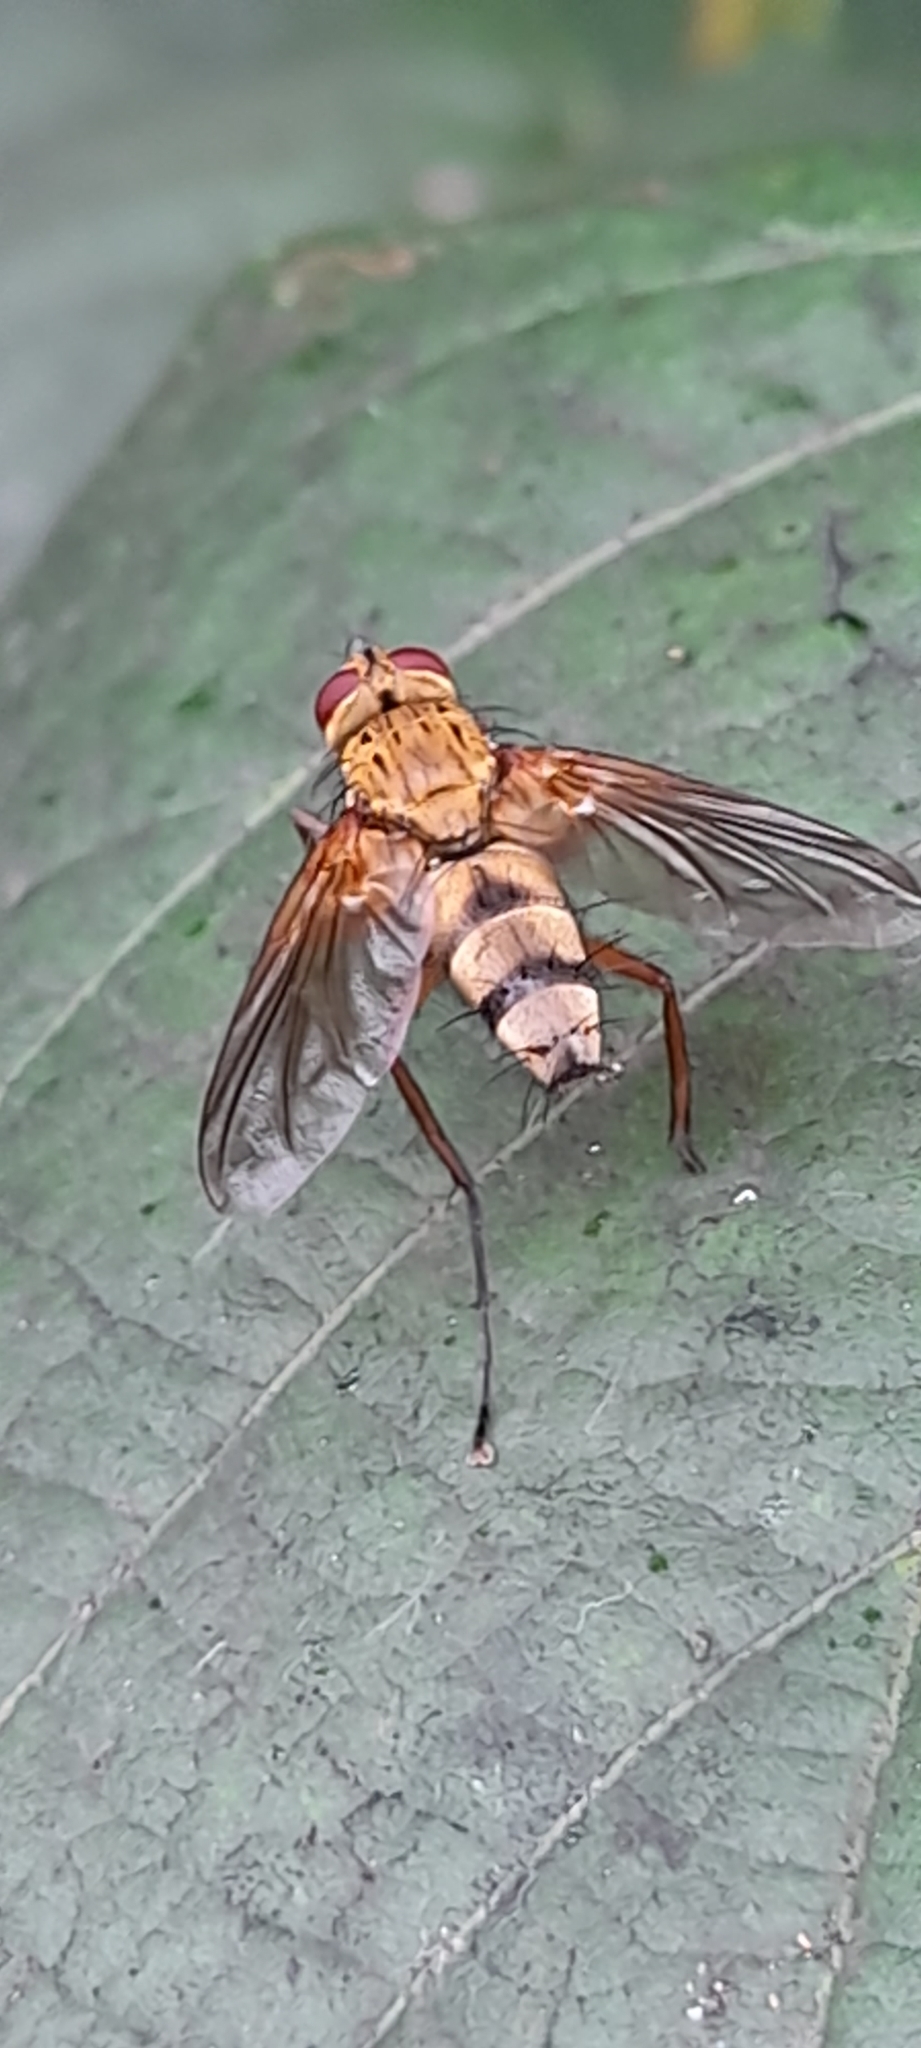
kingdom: Animalia
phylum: Arthropoda
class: Insecta
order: Diptera
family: Tachinidae
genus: Dexiosoma
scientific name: Dexiosoma caninum
